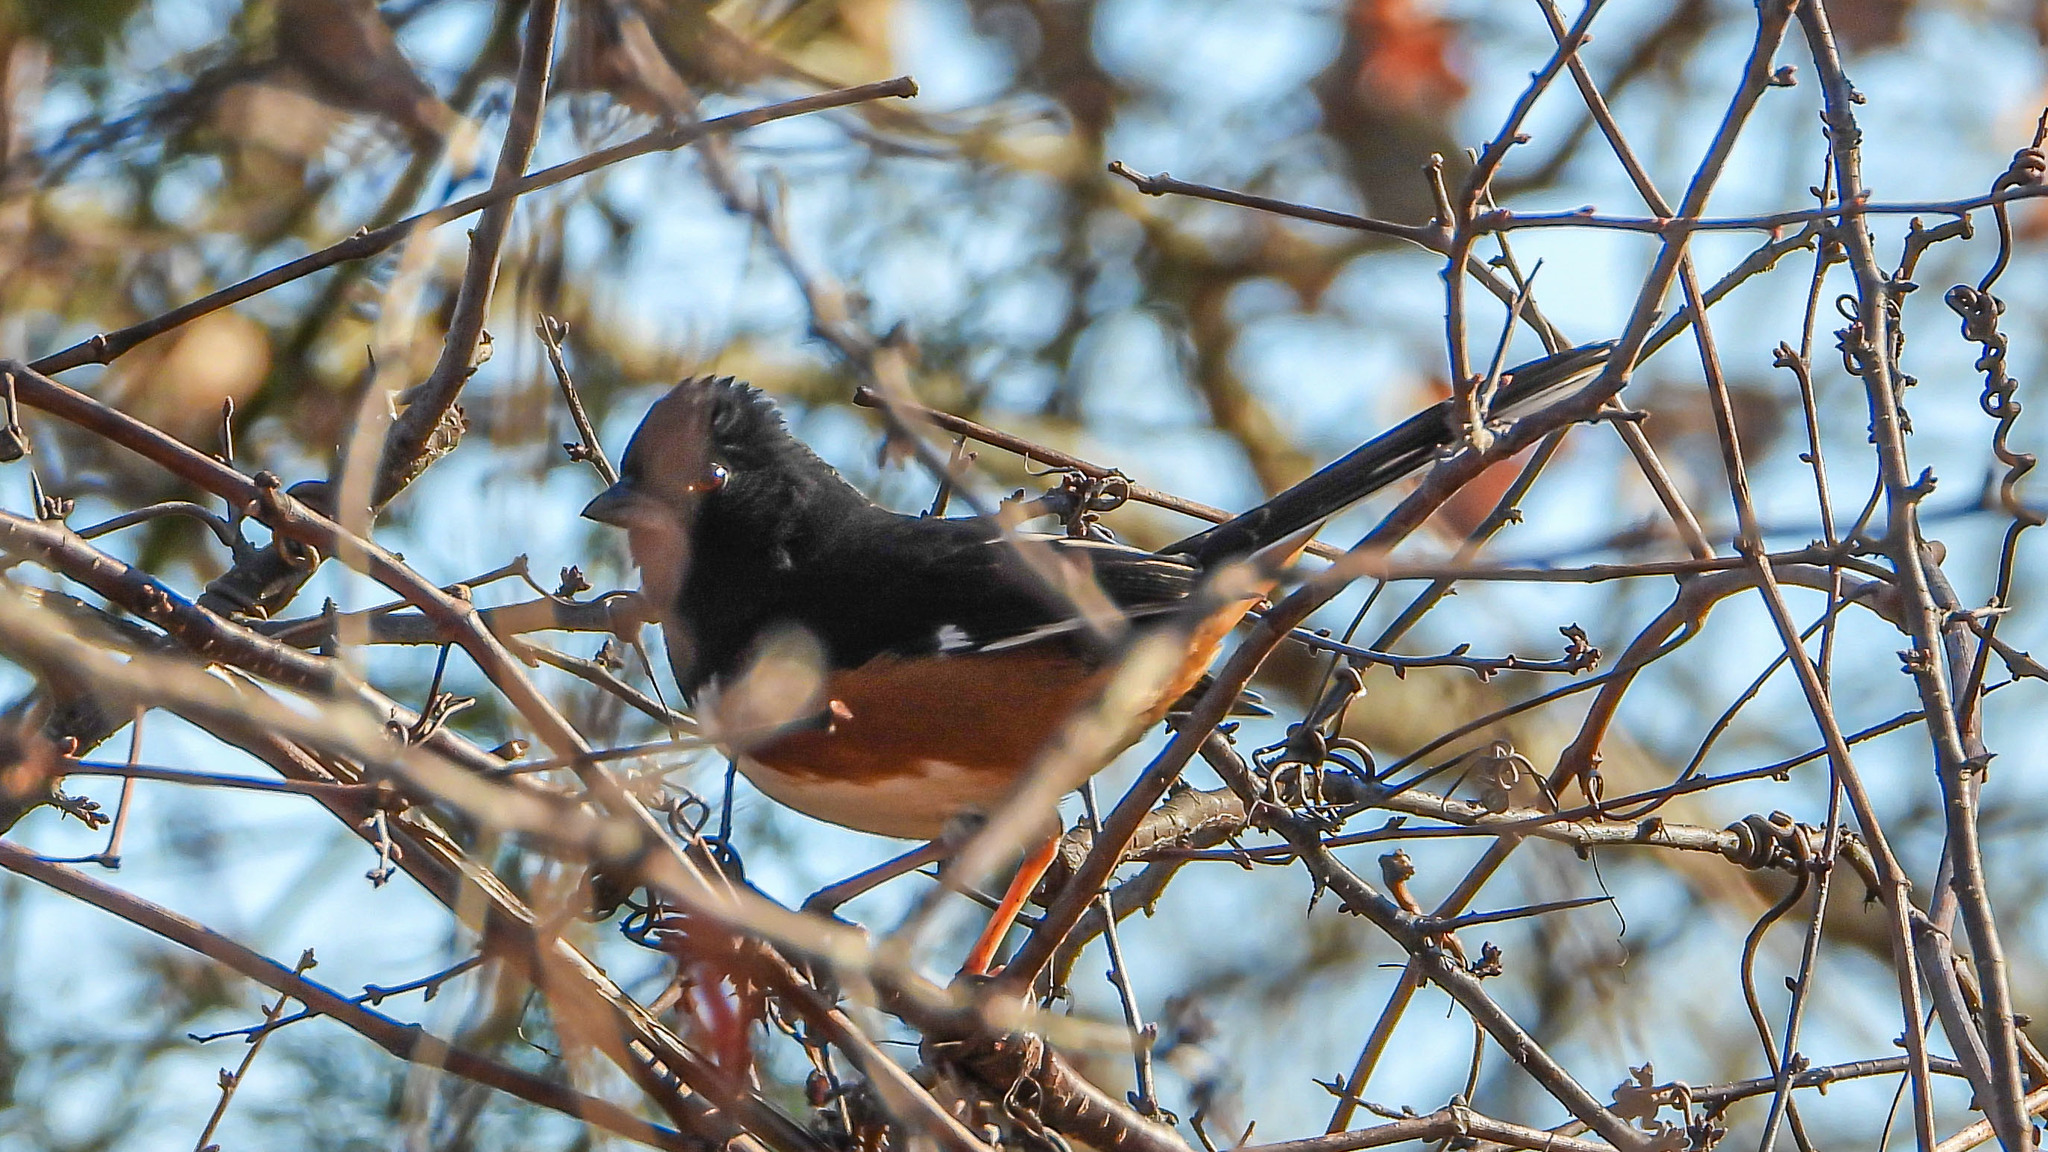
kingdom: Animalia
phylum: Chordata
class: Aves
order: Passeriformes
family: Passerellidae
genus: Pipilo
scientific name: Pipilo erythrophthalmus
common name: Eastern towhee
